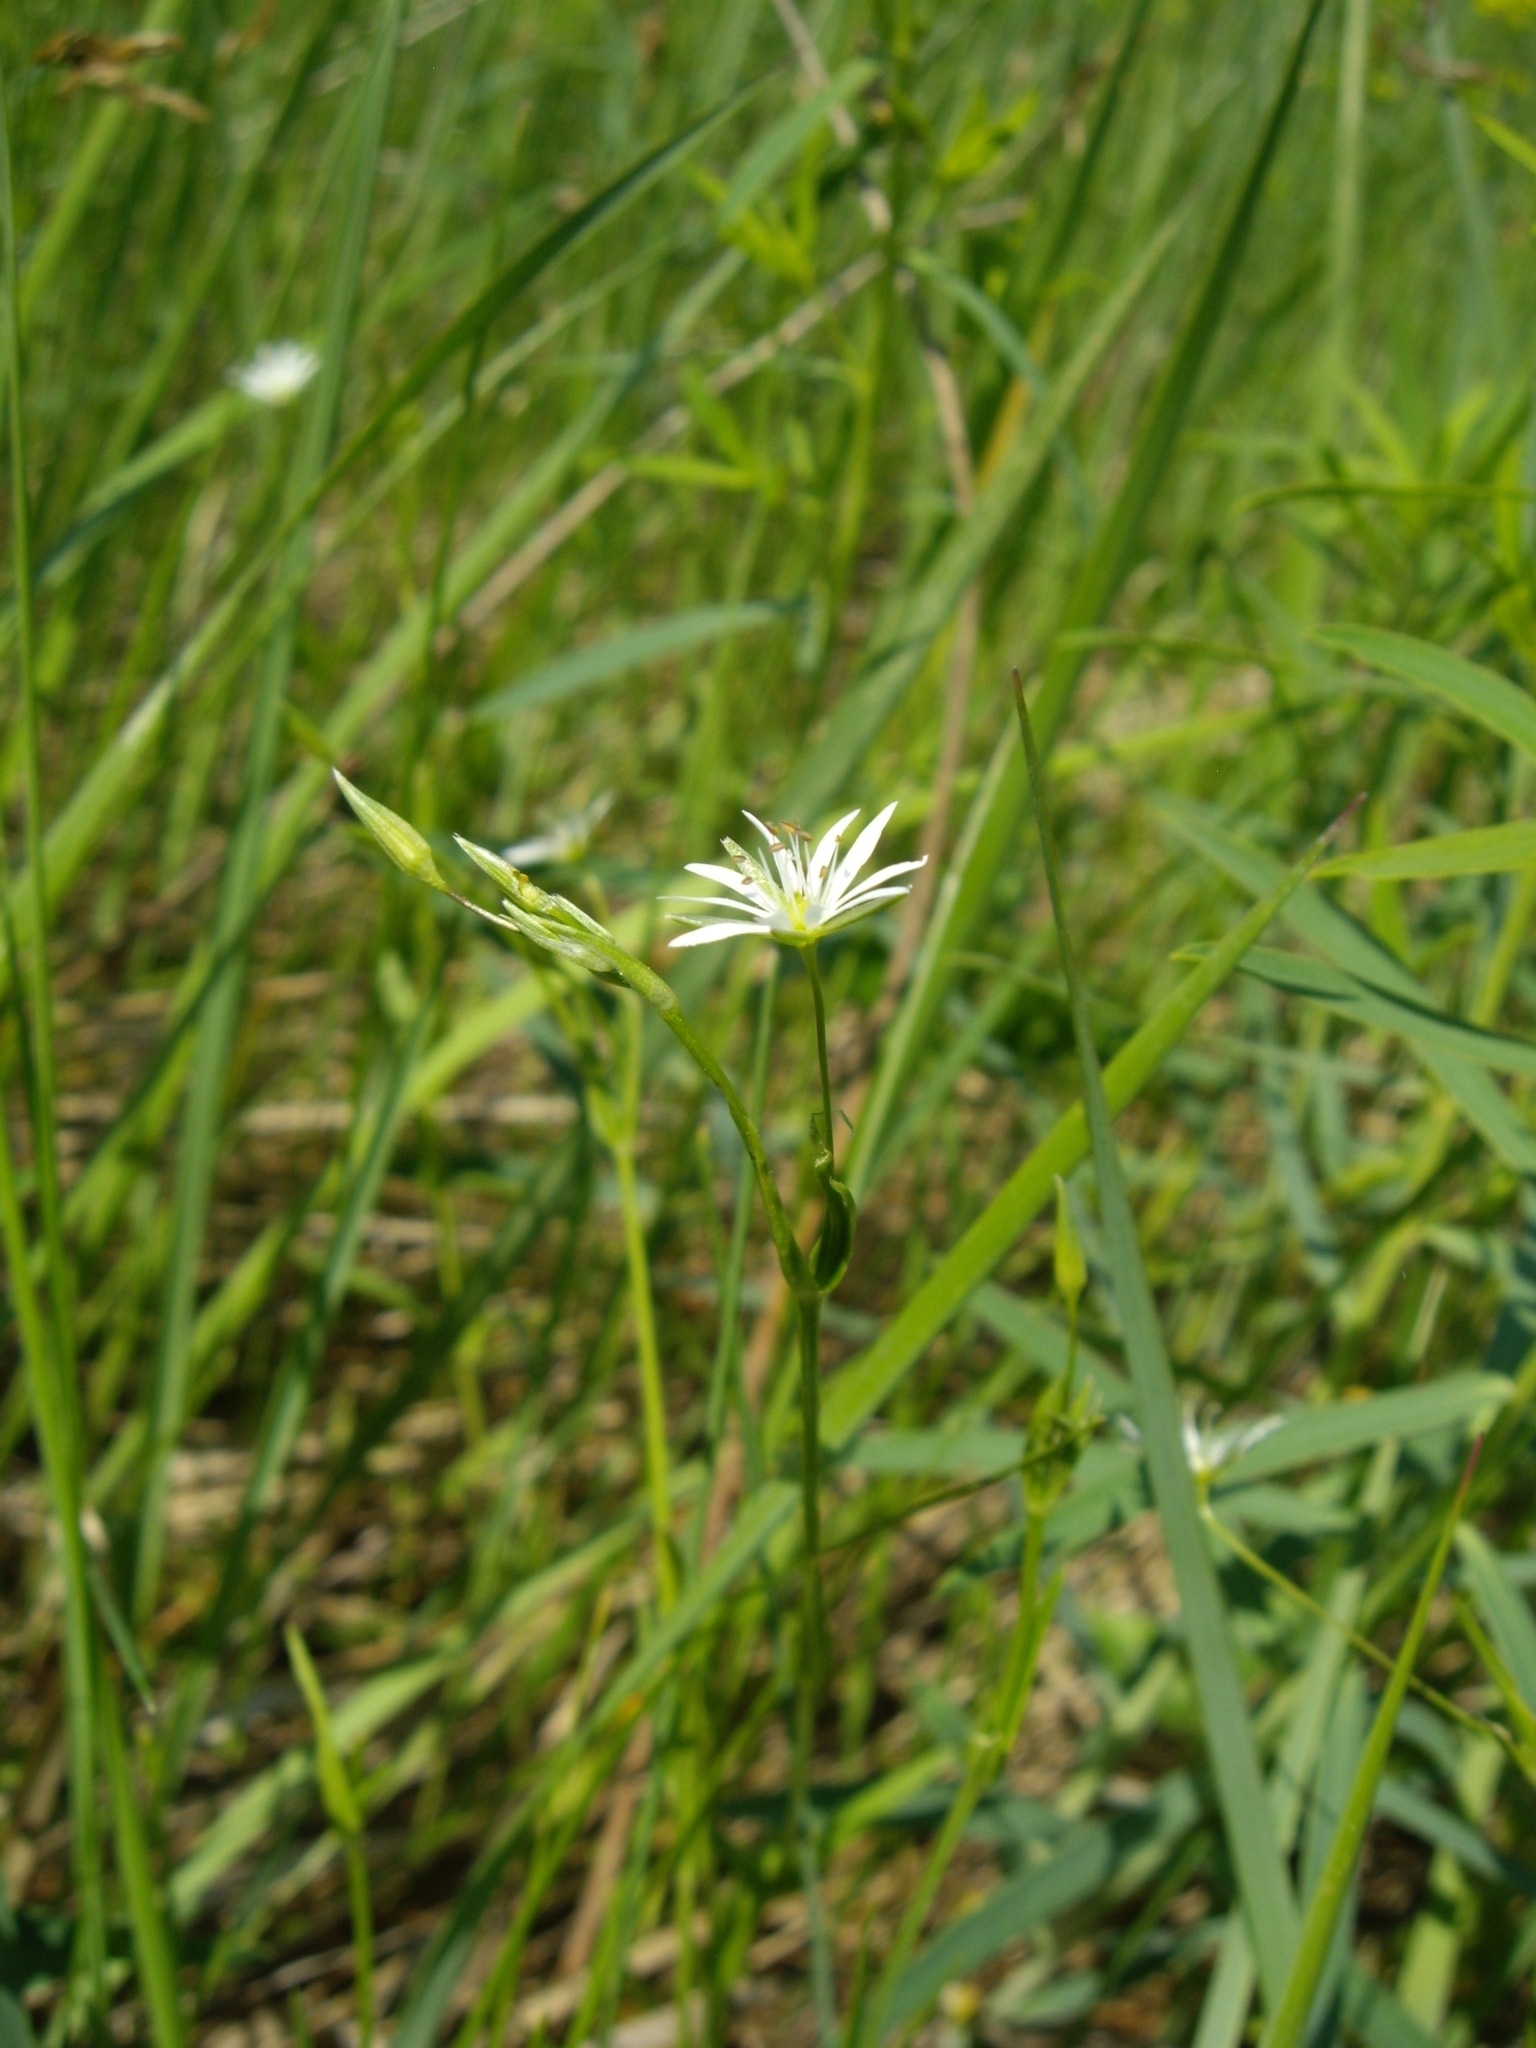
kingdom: Plantae
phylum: Tracheophyta
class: Magnoliopsida
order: Caryophyllales
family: Caryophyllaceae
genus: Stellaria
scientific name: Stellaria graminea
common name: Grass-like starwort
